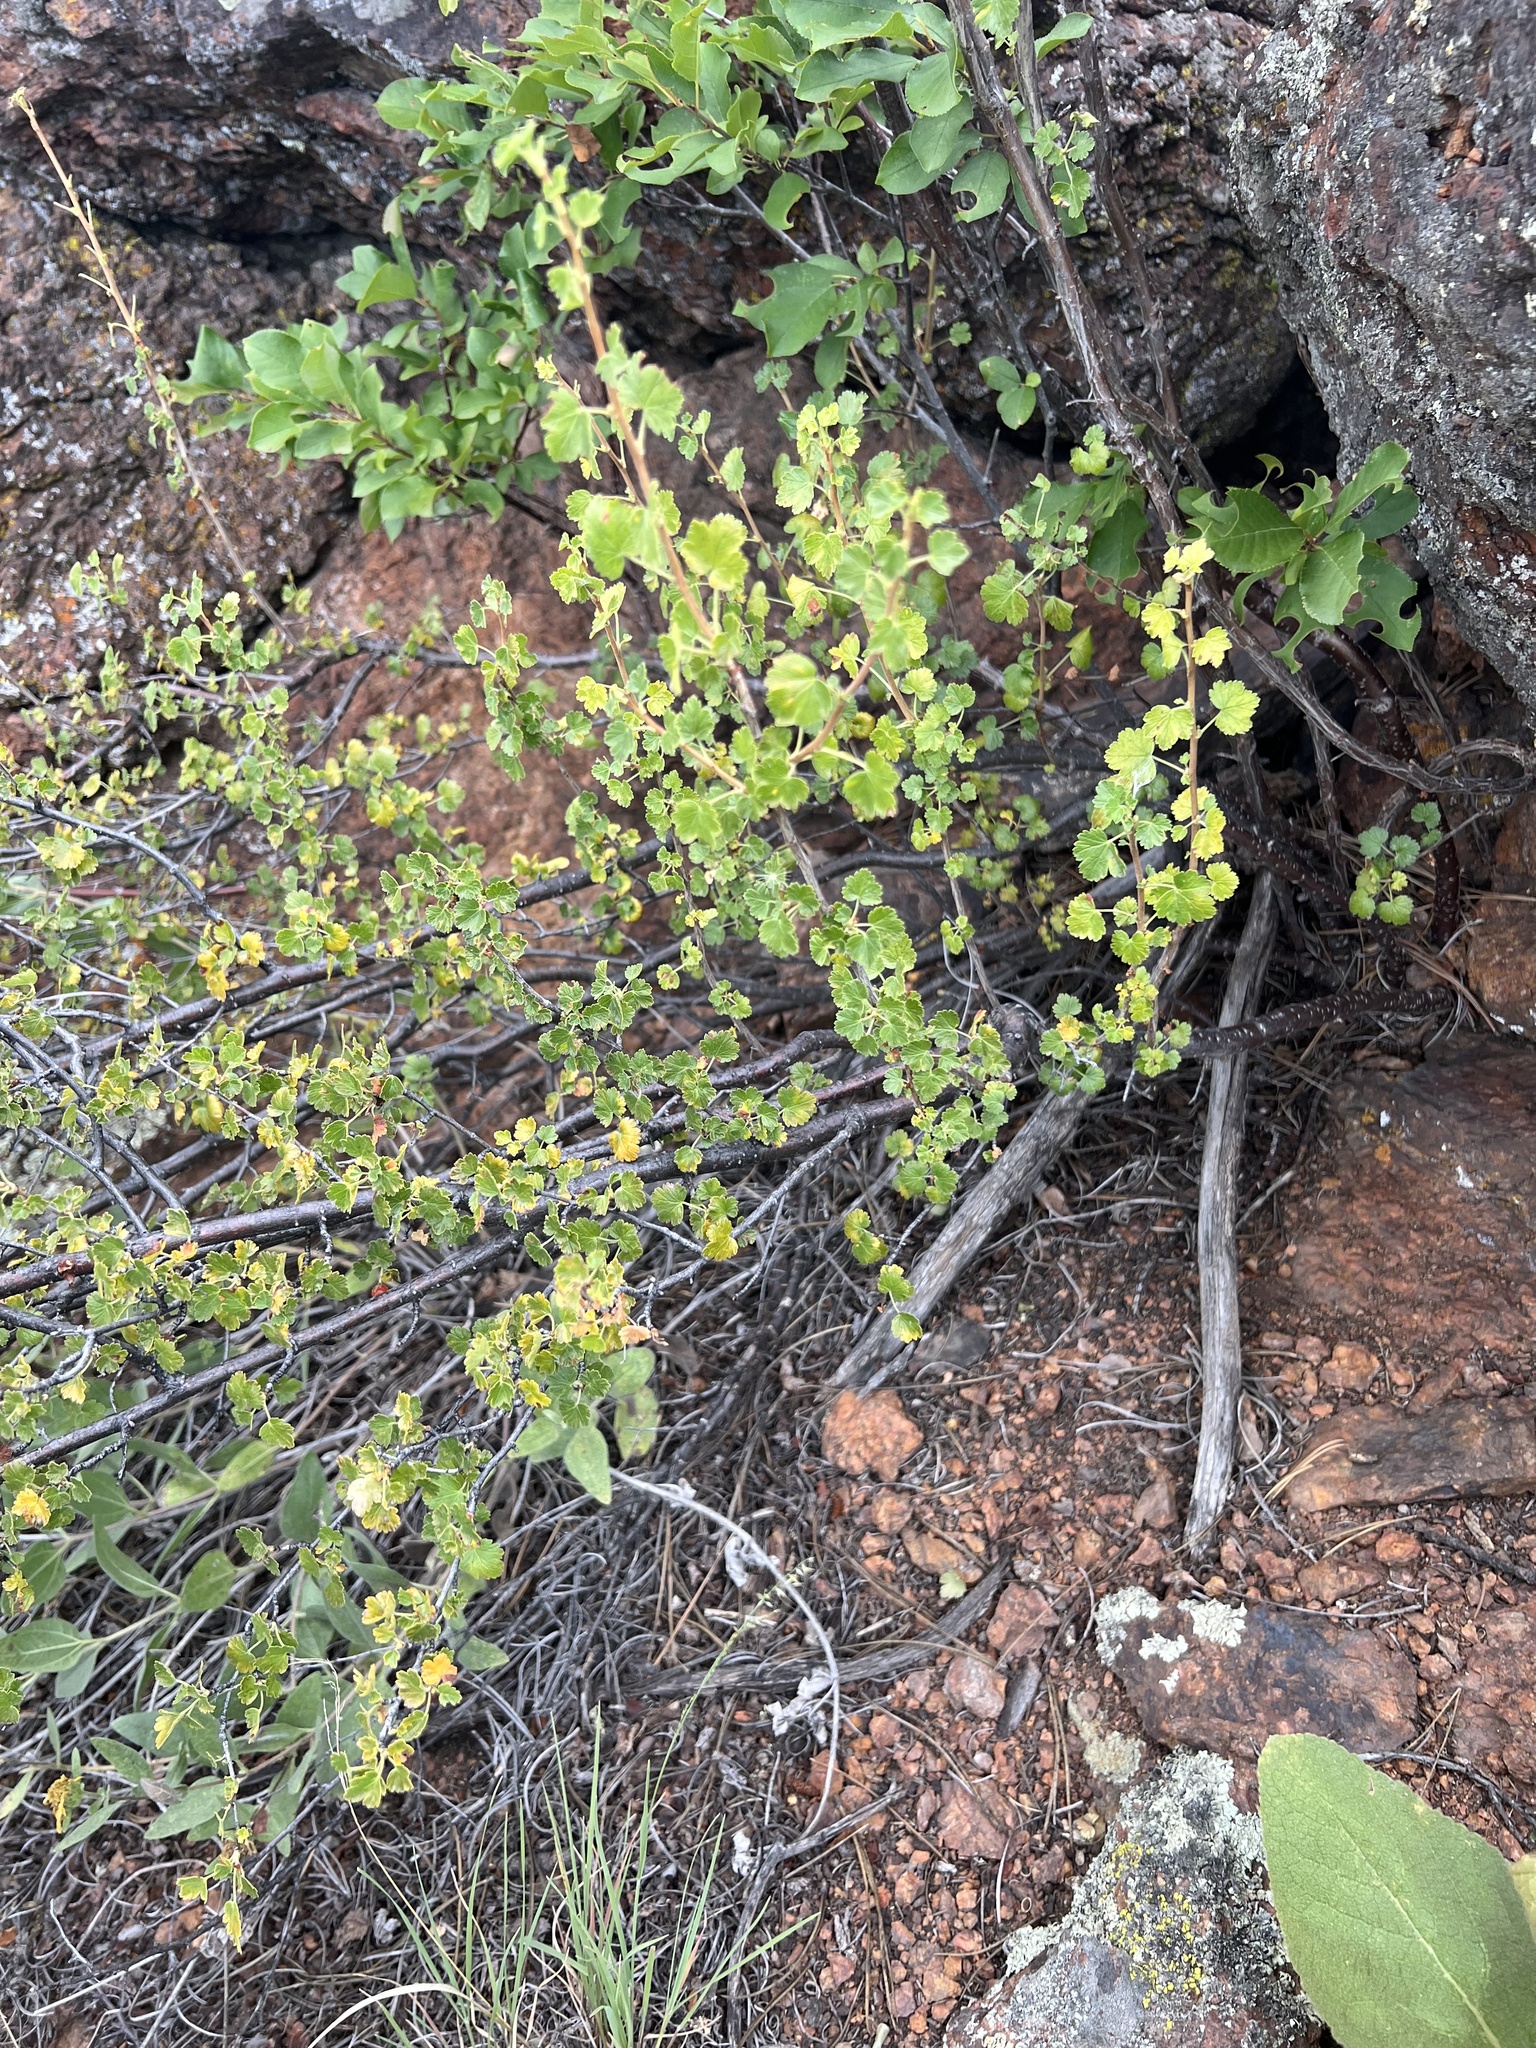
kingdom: Plantae
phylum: Tracheophyta
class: Magnoliopsida
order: Saxifragales
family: Grossulariaceae
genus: Ribes
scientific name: Ribes cereum
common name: Wax currant
